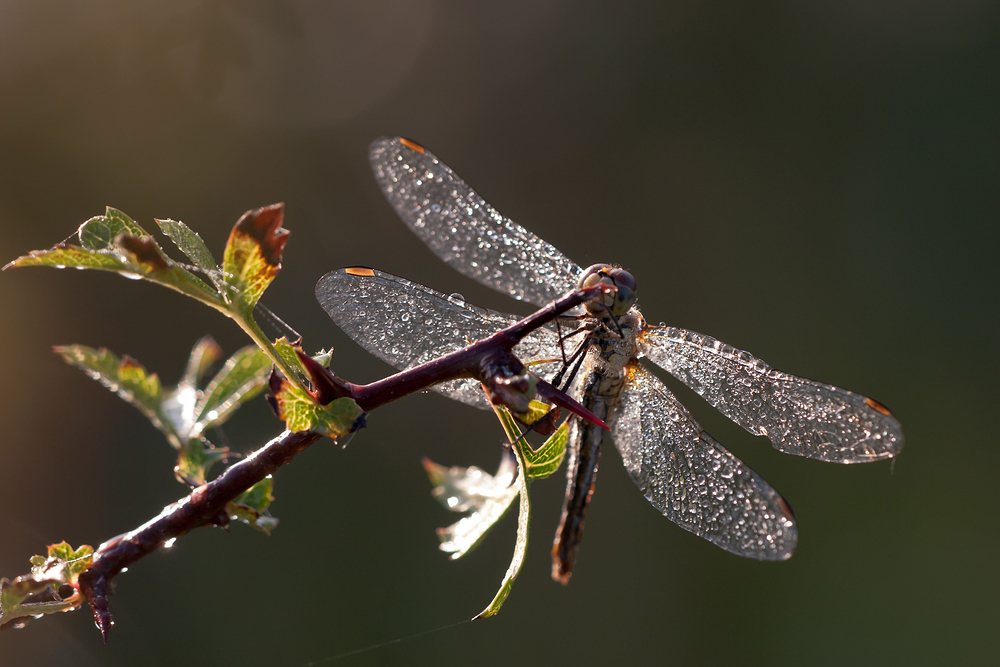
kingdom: Animalia
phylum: Arthropoda
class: Insecta
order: Odonata
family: Libellulidae
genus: Sympetrum
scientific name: Sympetrum sanguineum
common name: Ruddy darter
